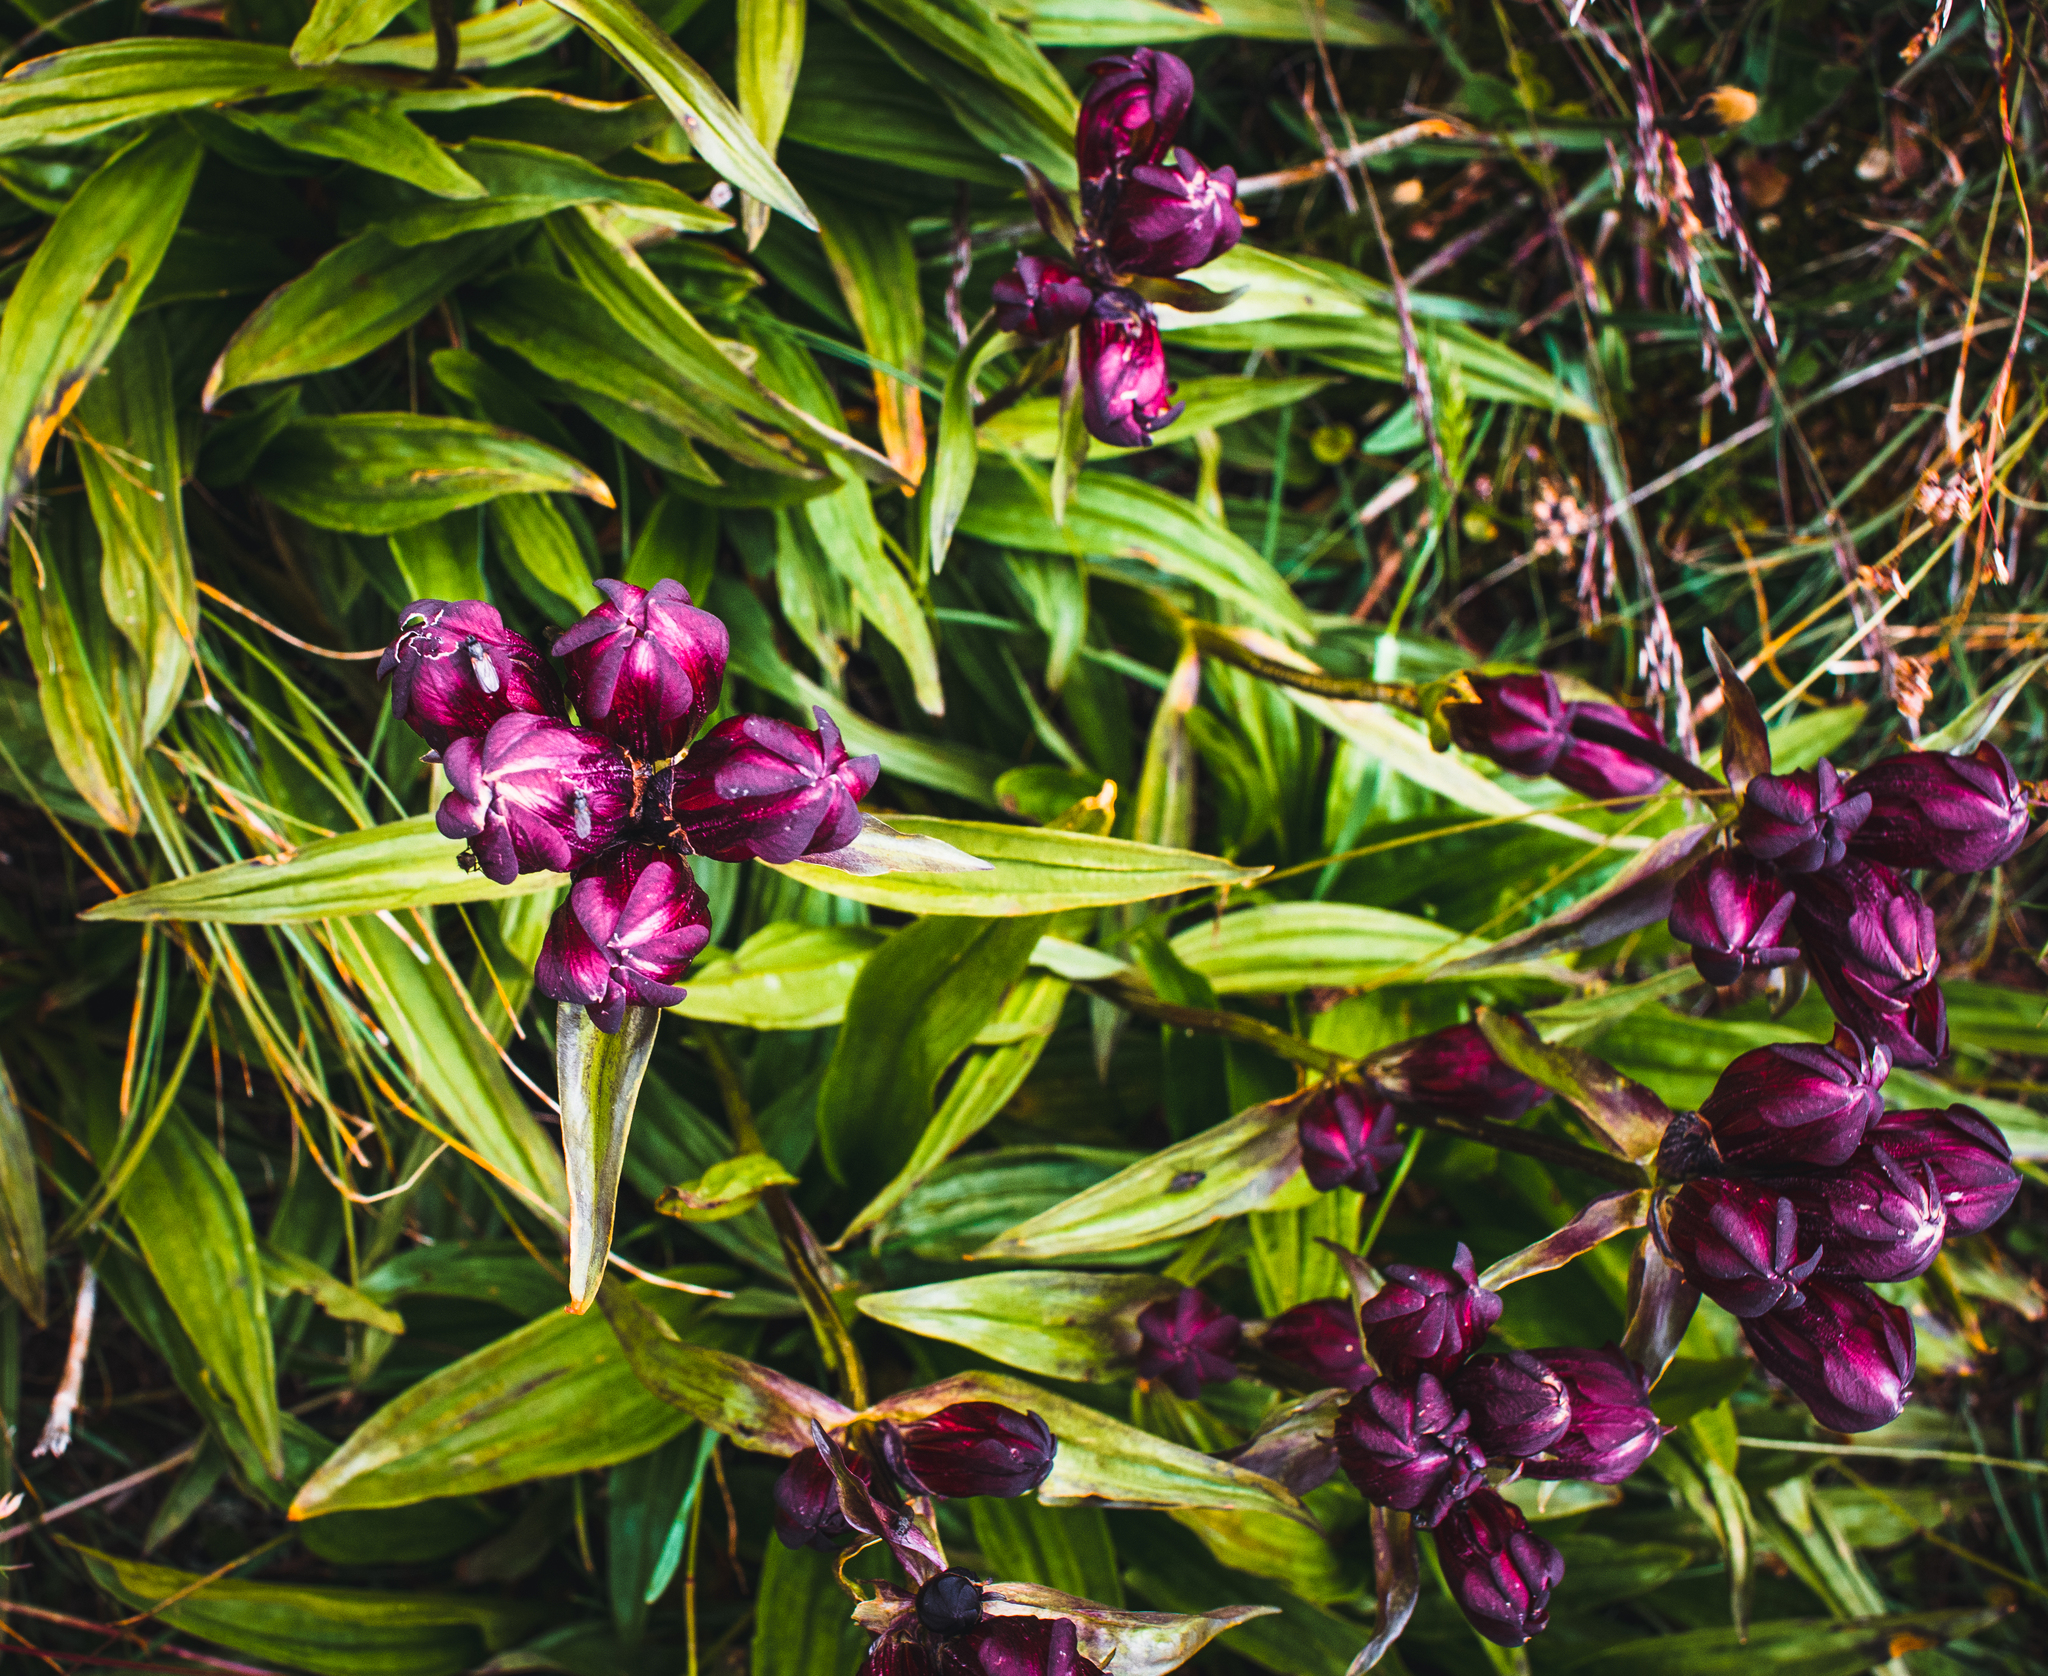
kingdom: Plantae
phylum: Tracheophyta
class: Magnoliopsida
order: Gentianales
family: Gentianaceae
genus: Gentiana
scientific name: Gentiana purpurea
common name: Purple gentian
